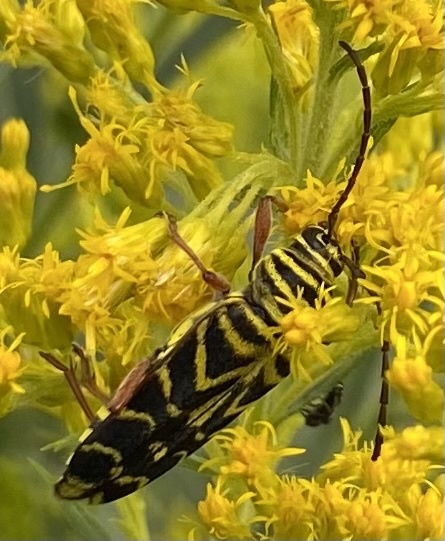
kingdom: Animalia
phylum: Arthropoda
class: Insecta
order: Coleoptera
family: Cerambycidae
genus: Megacyllene
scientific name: Megacyllene robiniae
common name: Locust borer
